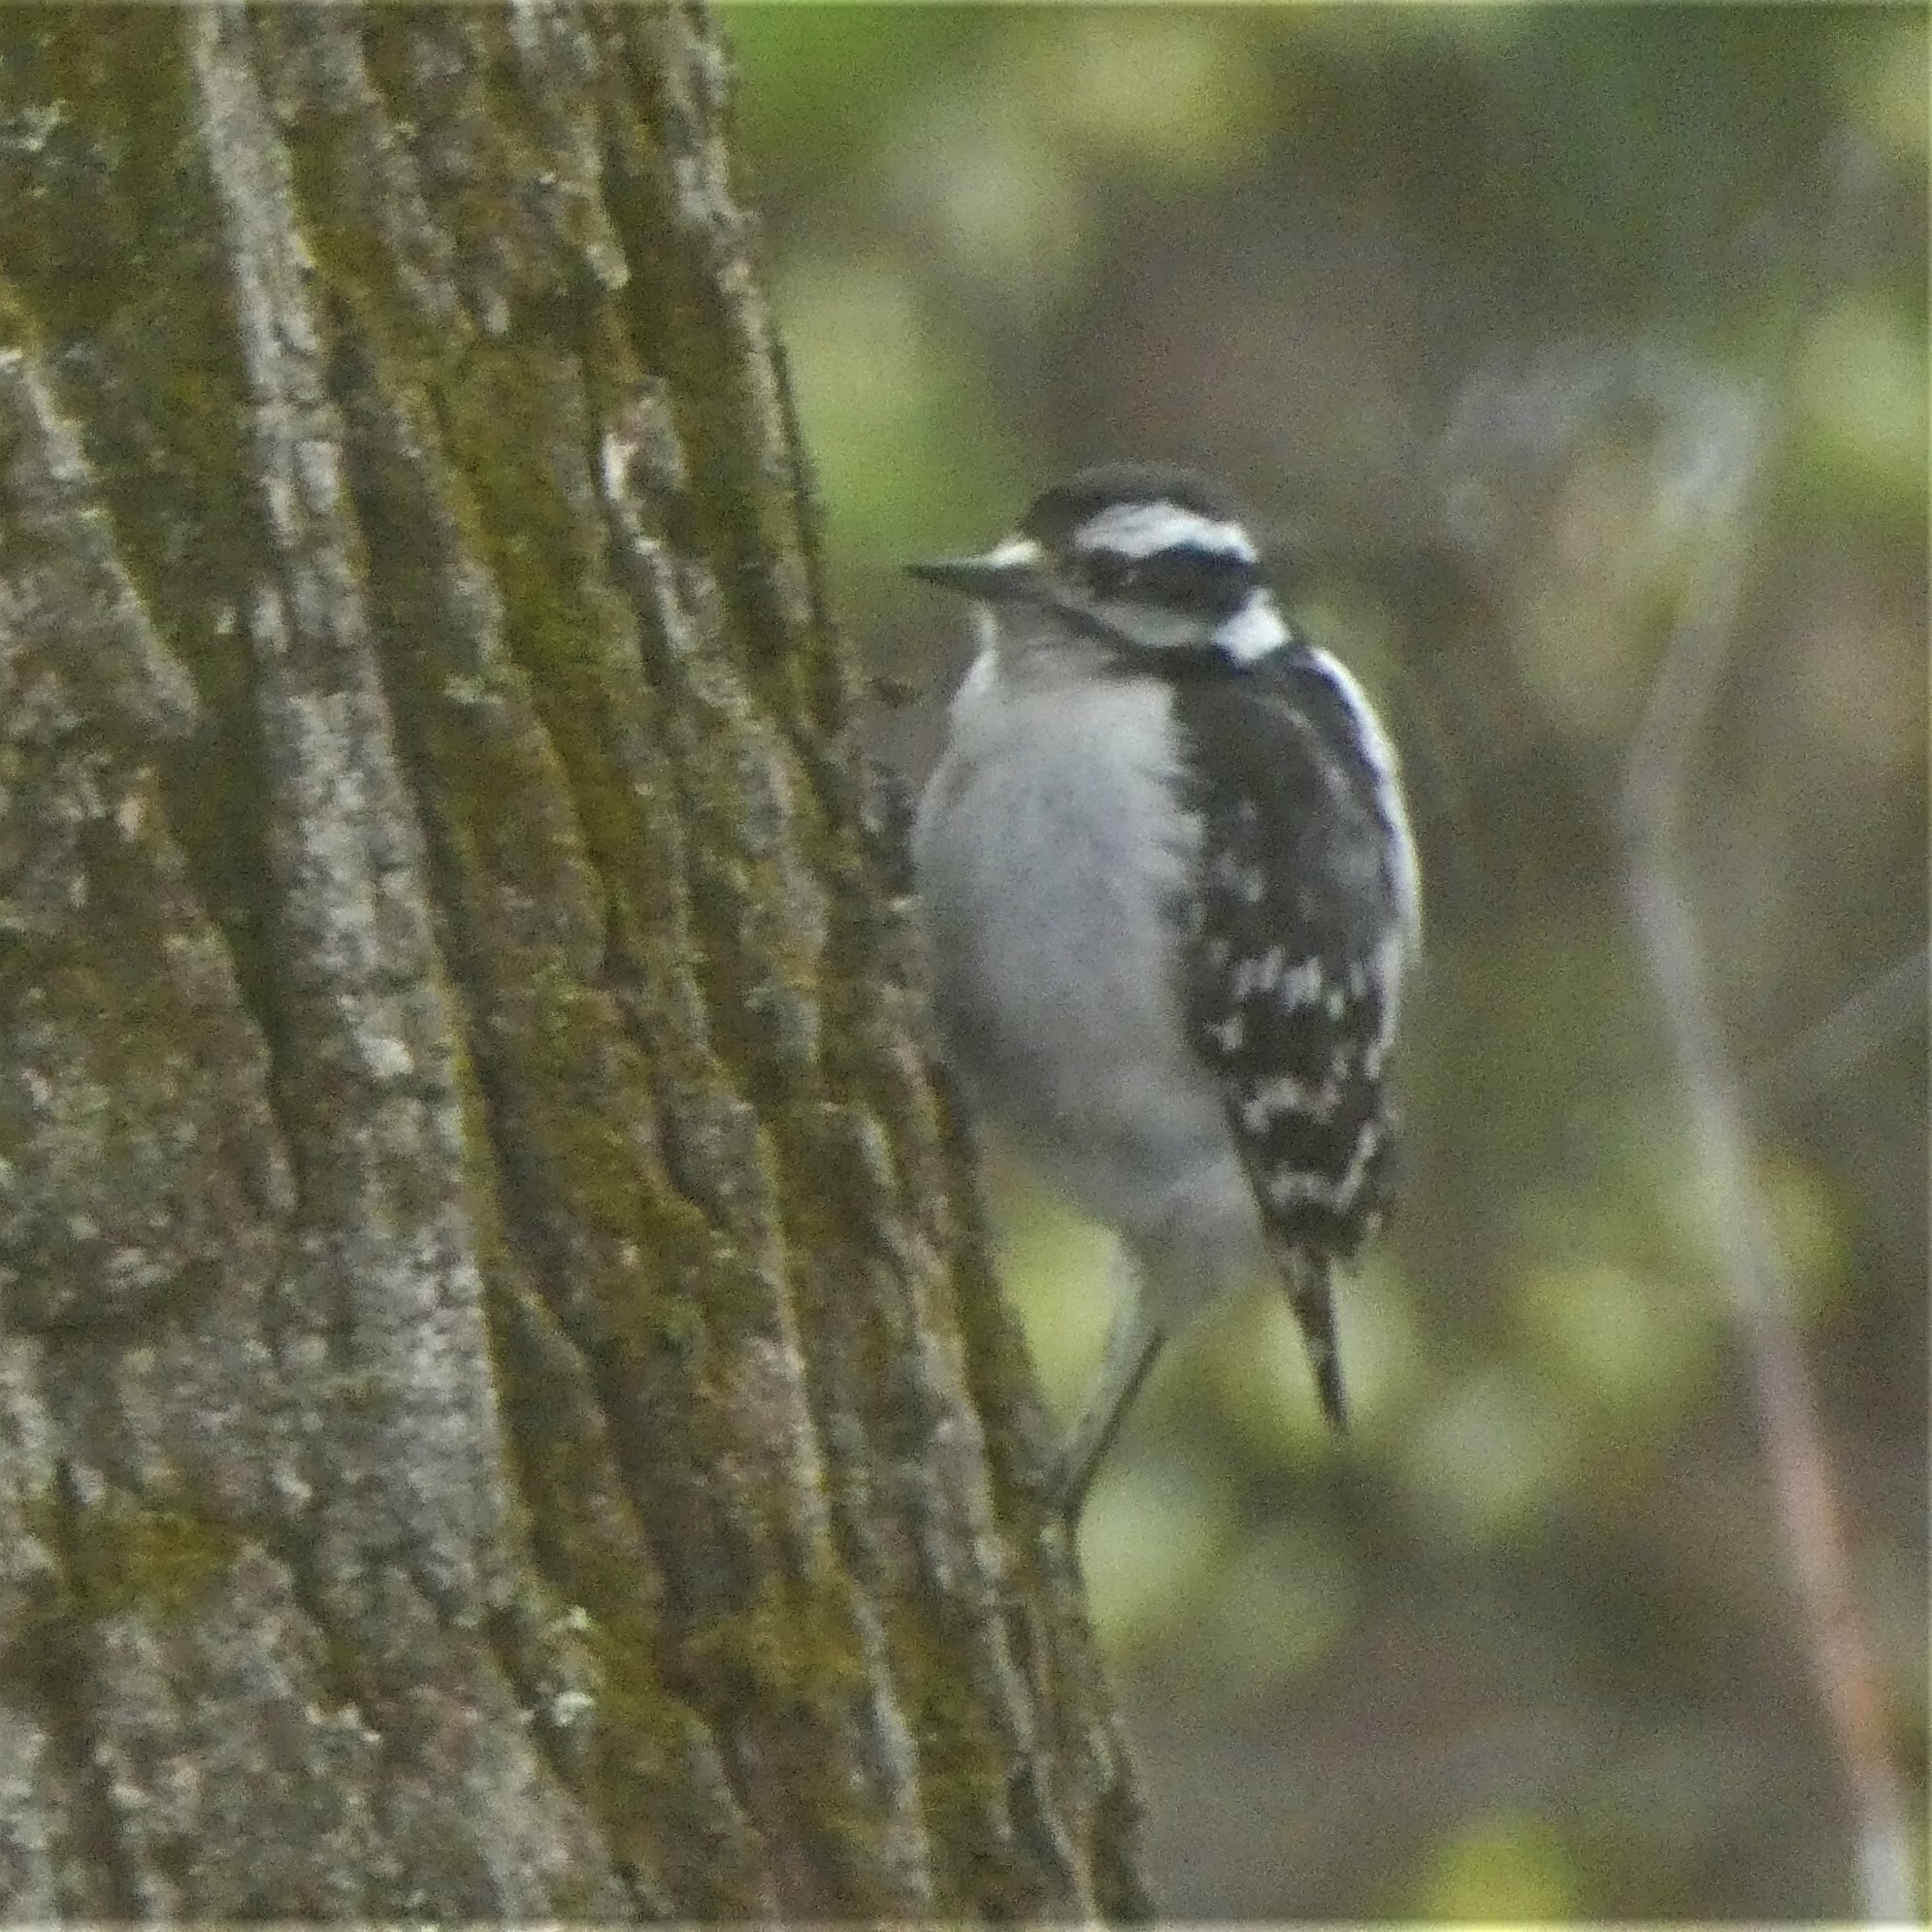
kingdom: Animalia
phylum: Chordata
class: Aves
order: Piciformes
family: Picidae
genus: Dryobates
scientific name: Dryobates pubescens
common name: Downy woodpecker
